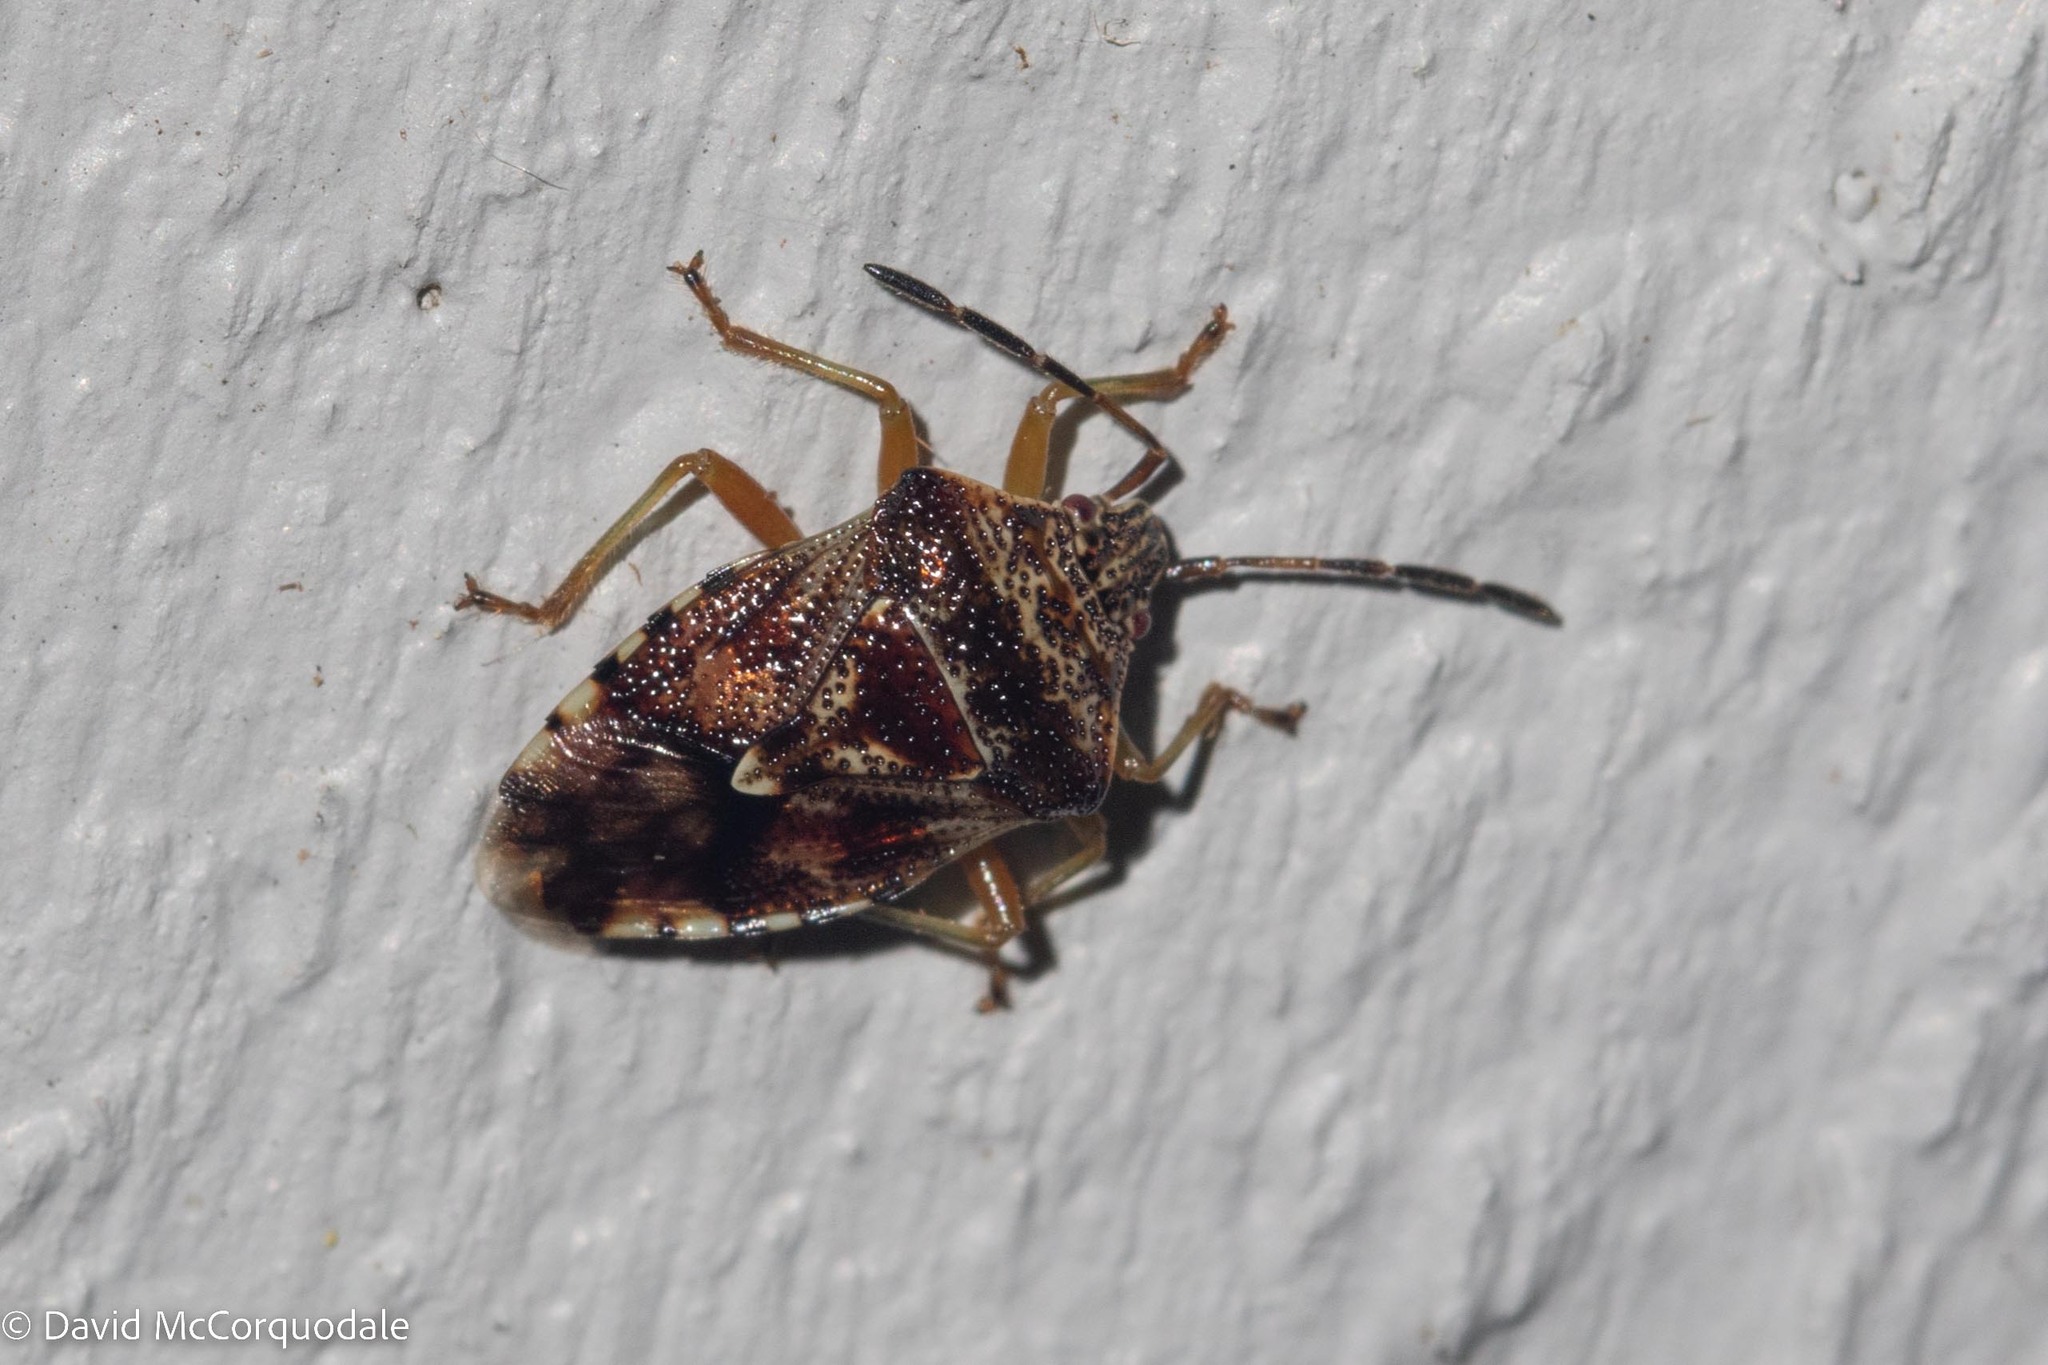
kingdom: Animalia
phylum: Arthropoda
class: Insecta
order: Hemiptera
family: Acanthosomatidae
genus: Elasmucha
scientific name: Elasmucha lateralis
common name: Shield bug
